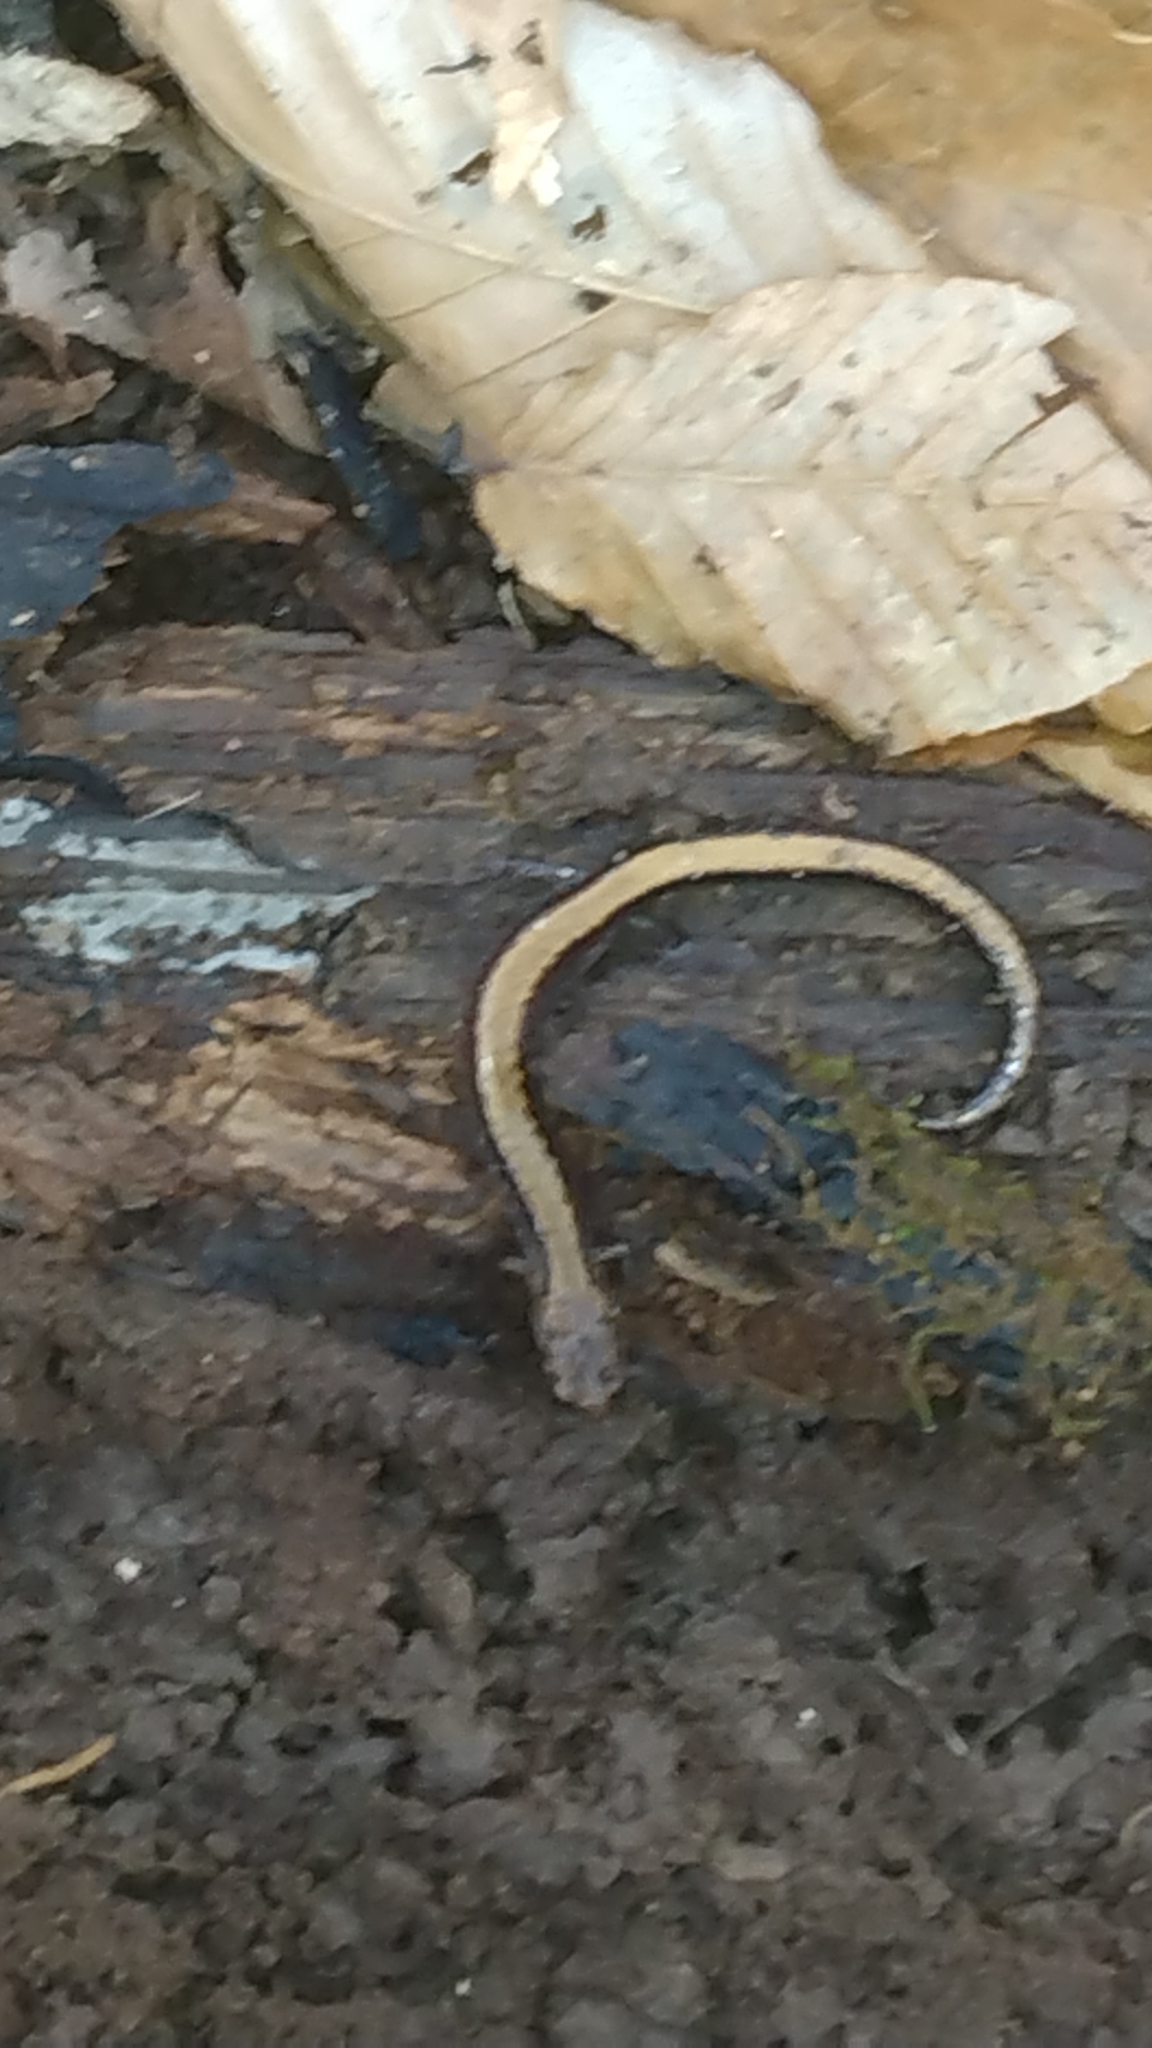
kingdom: Animalia
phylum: Chordata
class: Amphibia
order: Caudata
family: Plethodontidae
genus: Plethodon
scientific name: Plethodon cinereus
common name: Redback salamander
